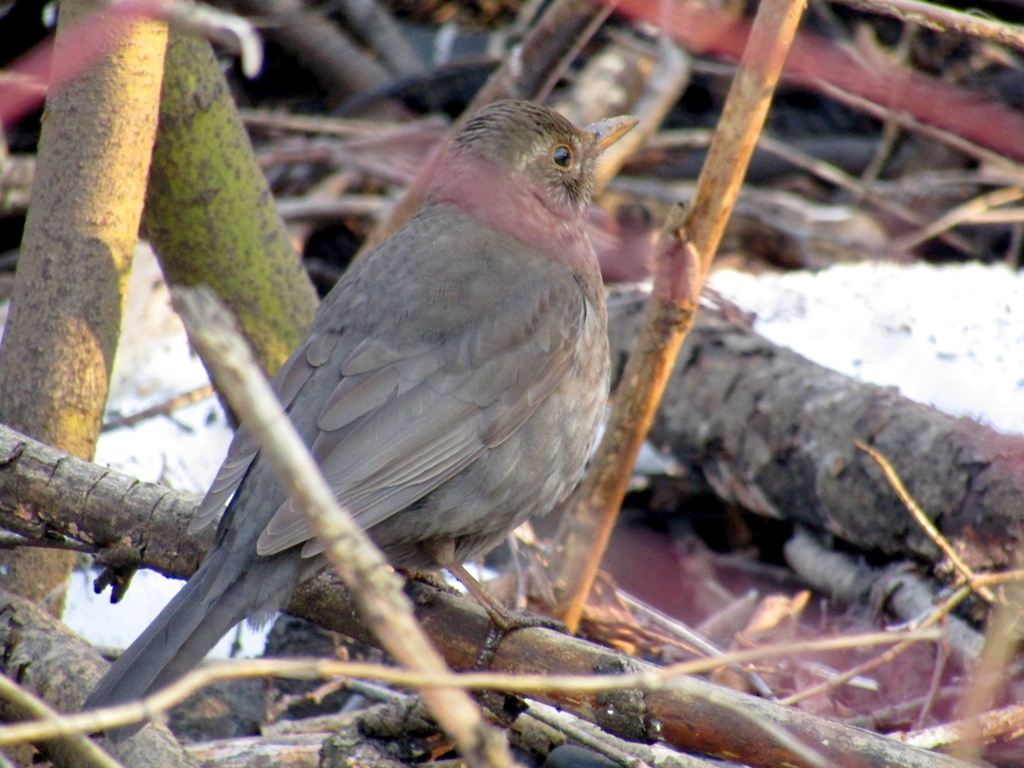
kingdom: Animalia
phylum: Chordata
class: Aves
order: Passeriformes
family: Turdidae
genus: Turdus
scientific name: Turdus merula
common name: Common blackbird
